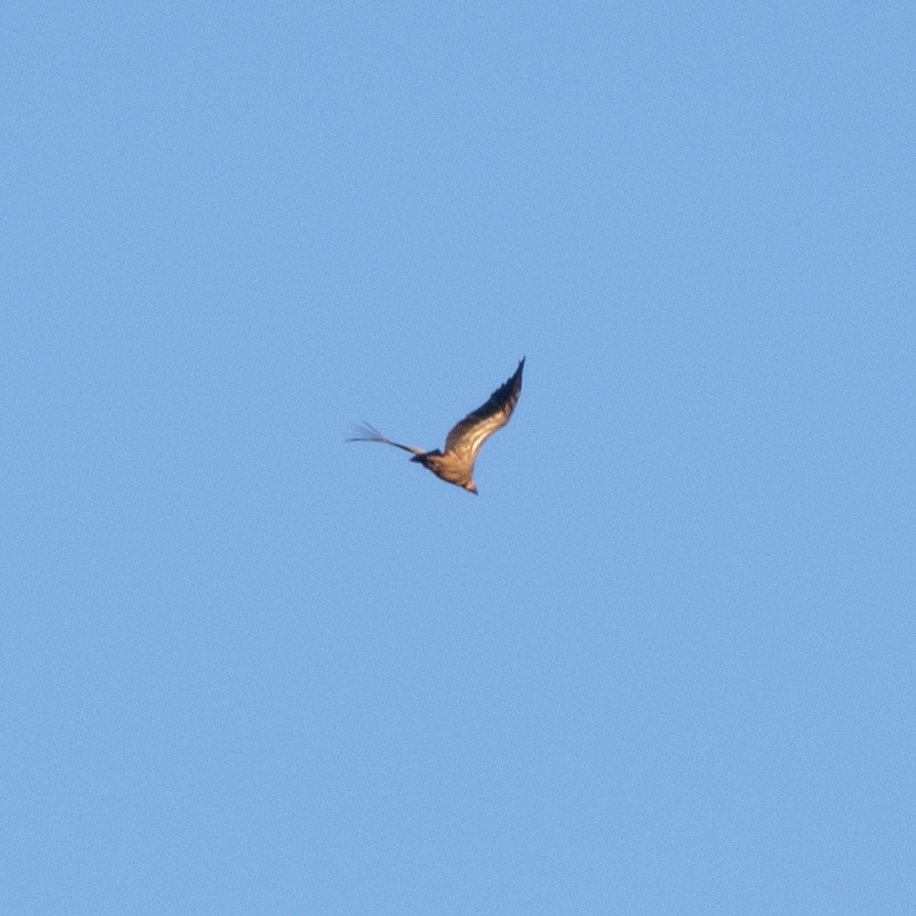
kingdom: Animalia
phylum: Chordata
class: Aves
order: Accipitriformes
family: Accipitridae
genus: Gyps
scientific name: Gyps fulvus
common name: Griffon vulture
